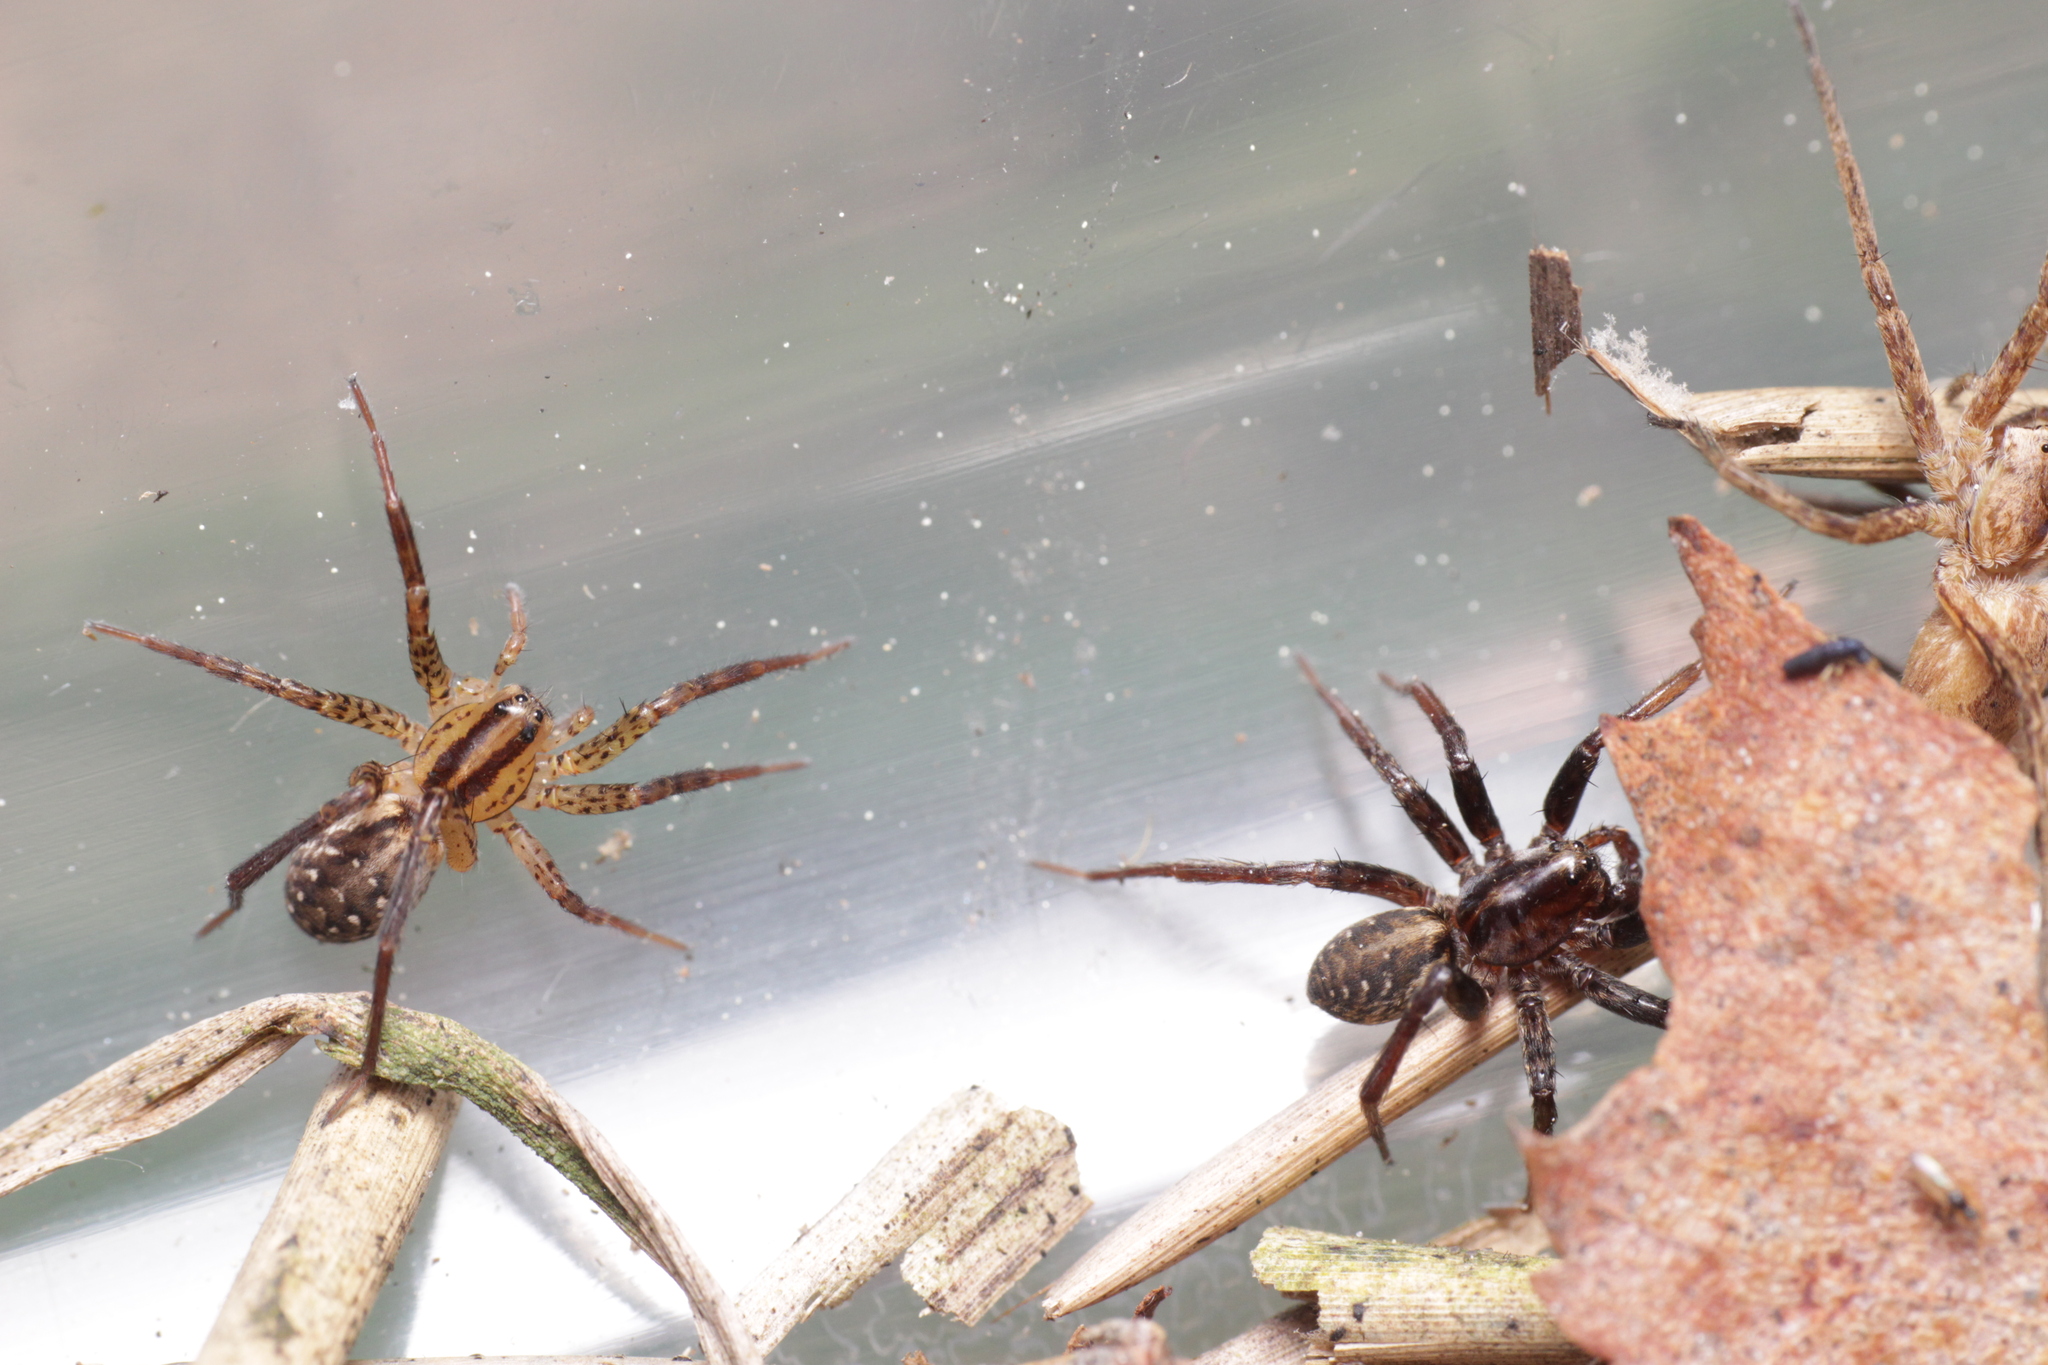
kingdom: Animalia
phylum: Arthropoda
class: Arachnida
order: Araneae
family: Lycosidae
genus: Hygrolycosa
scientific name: Hygrolycosa rubrofasciata
